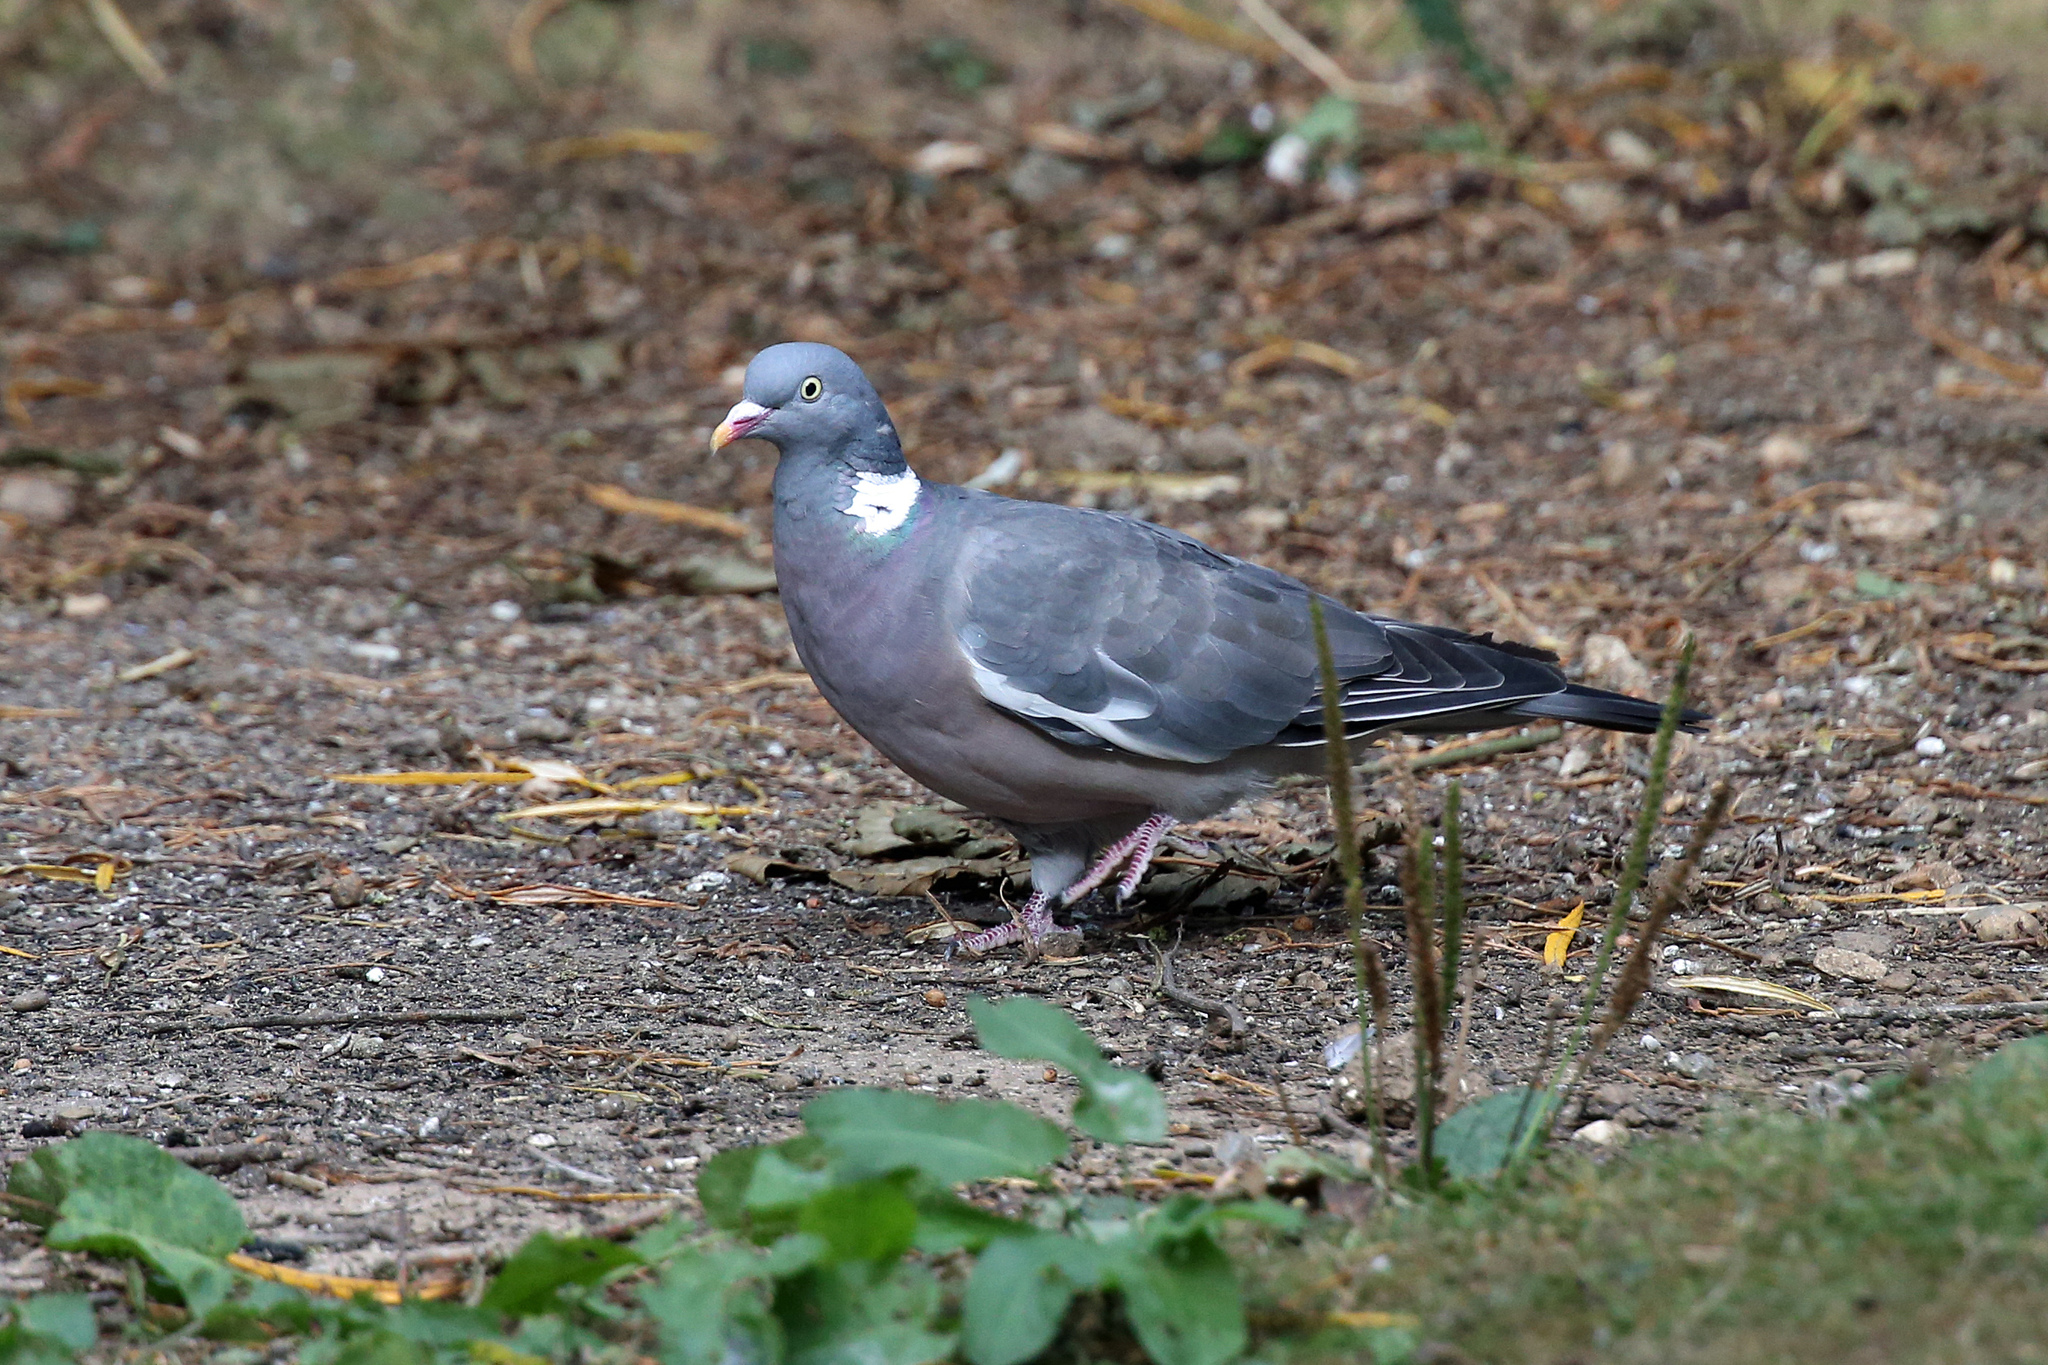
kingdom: Animalia
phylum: Chordata
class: Aves
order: Columbiformes
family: Columbidae
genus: Columba
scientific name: Columba palumbus
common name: Common wood pigeon
